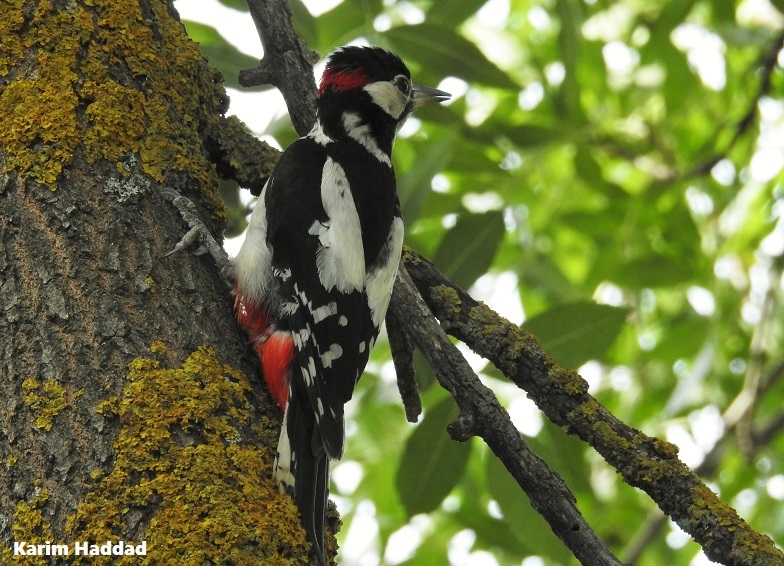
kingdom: Animalia
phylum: Chordata
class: Aves
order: Piciformes
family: Picidae
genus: Dendrocopos
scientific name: Dendrocopos major
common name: Great spotted woodpecker
